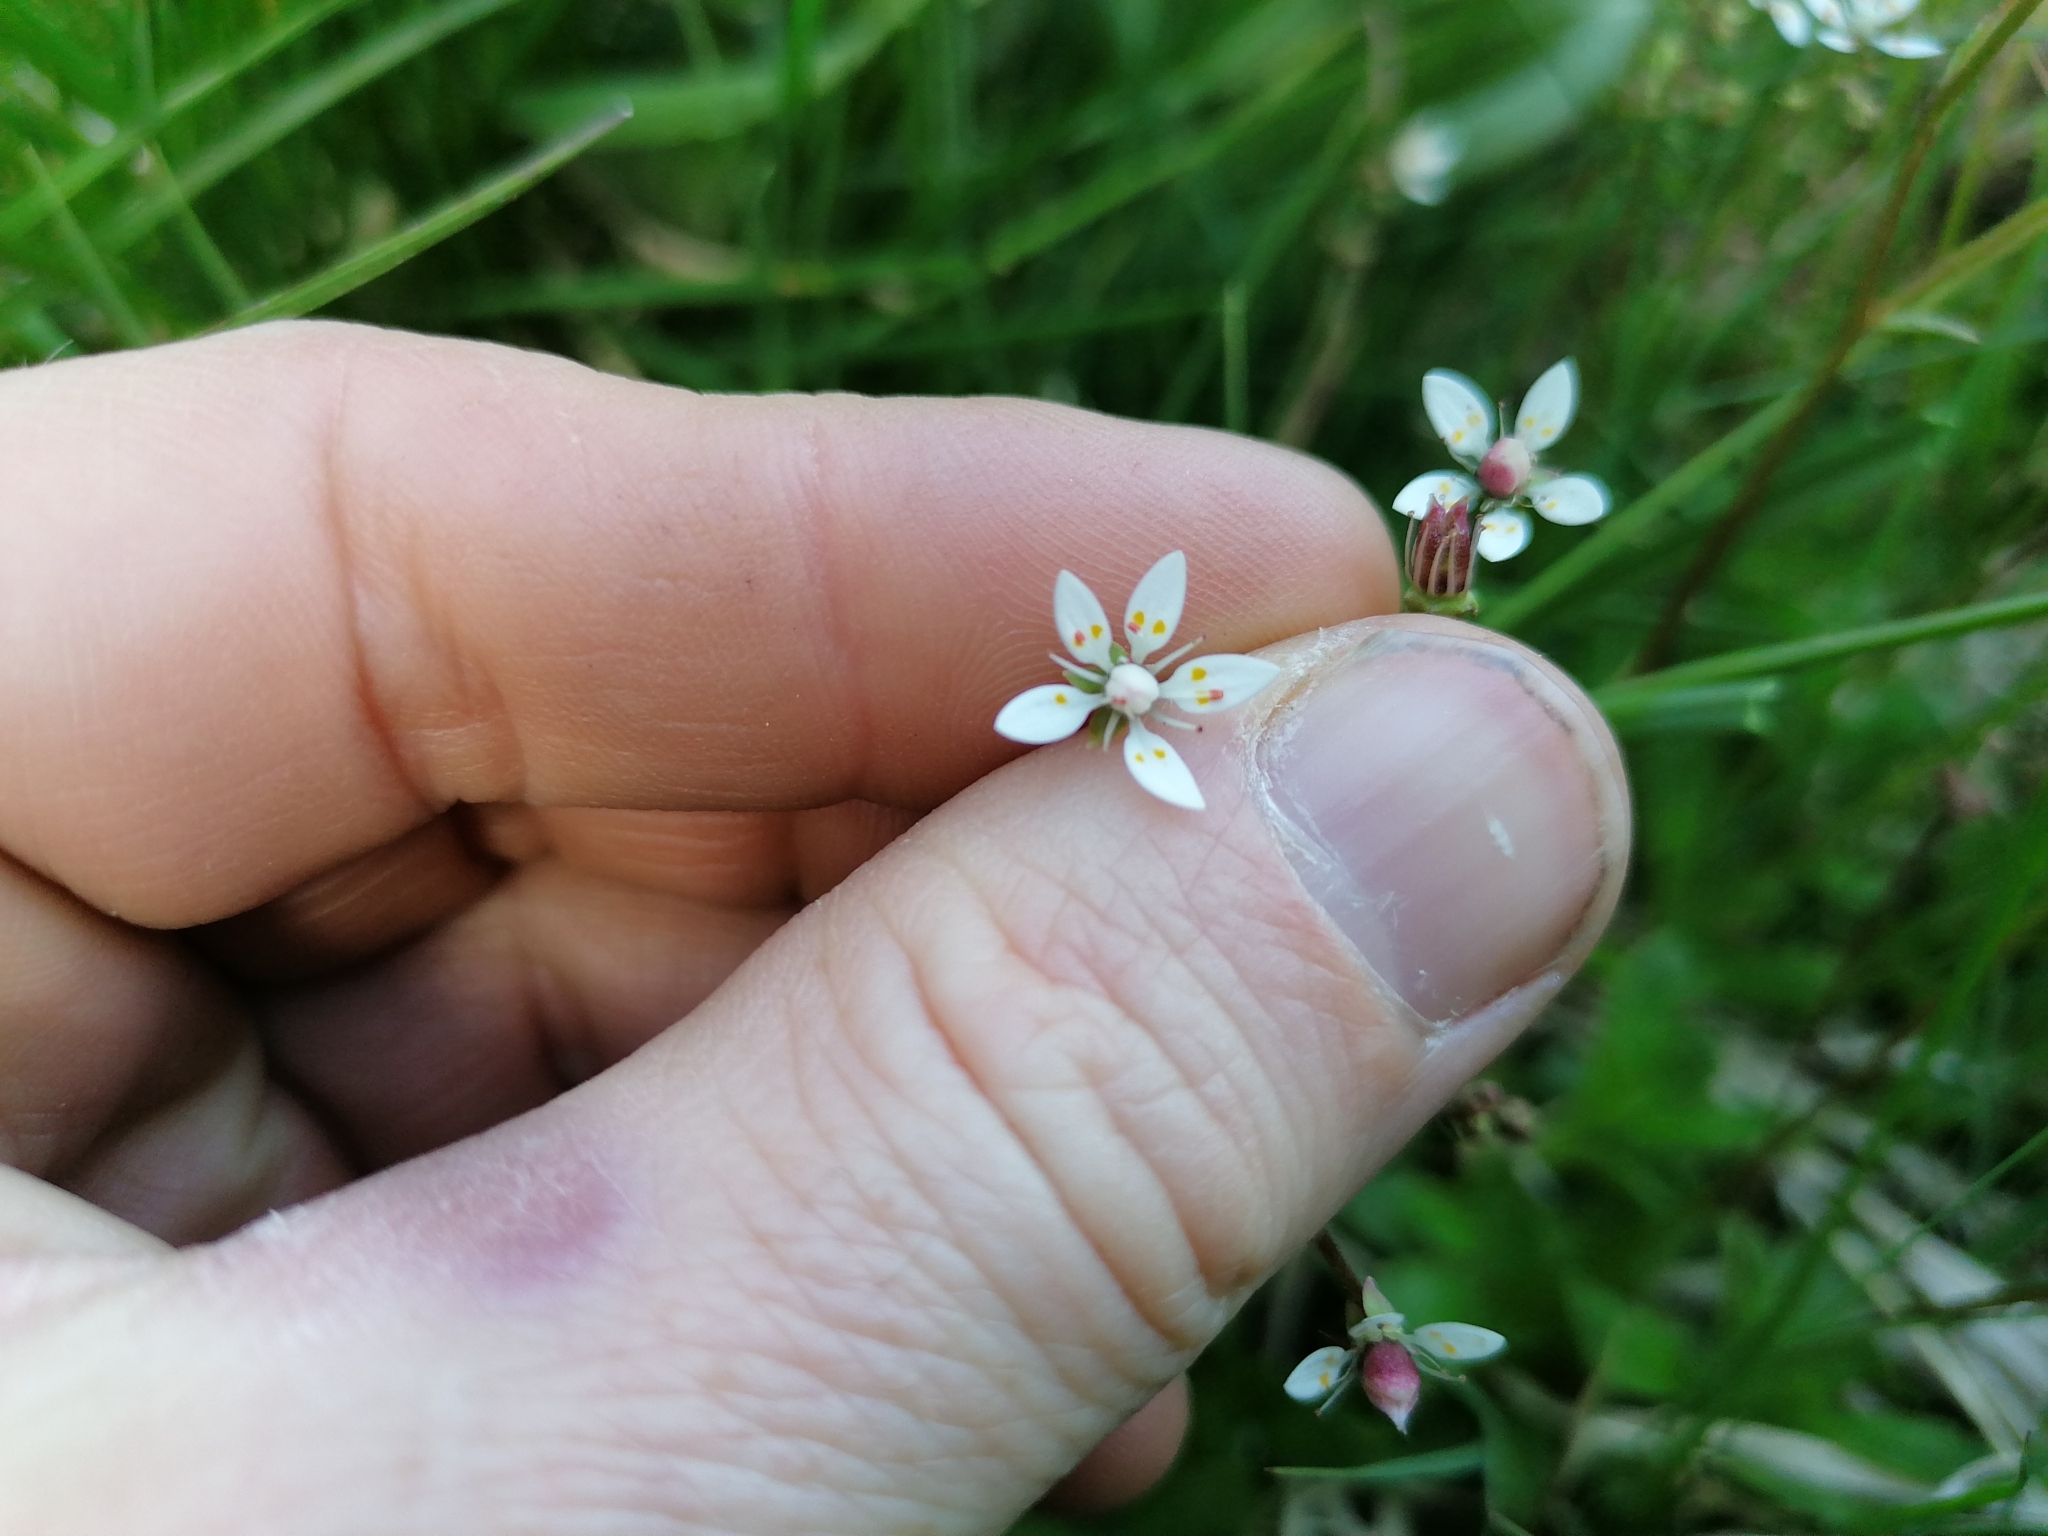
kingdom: Plantae
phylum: Tracheophyta
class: Magnoliopsida
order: Saxifragales
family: Saxifragaceae
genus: Micranthes
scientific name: Micranthes stellaris
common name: Starry saxifrage
